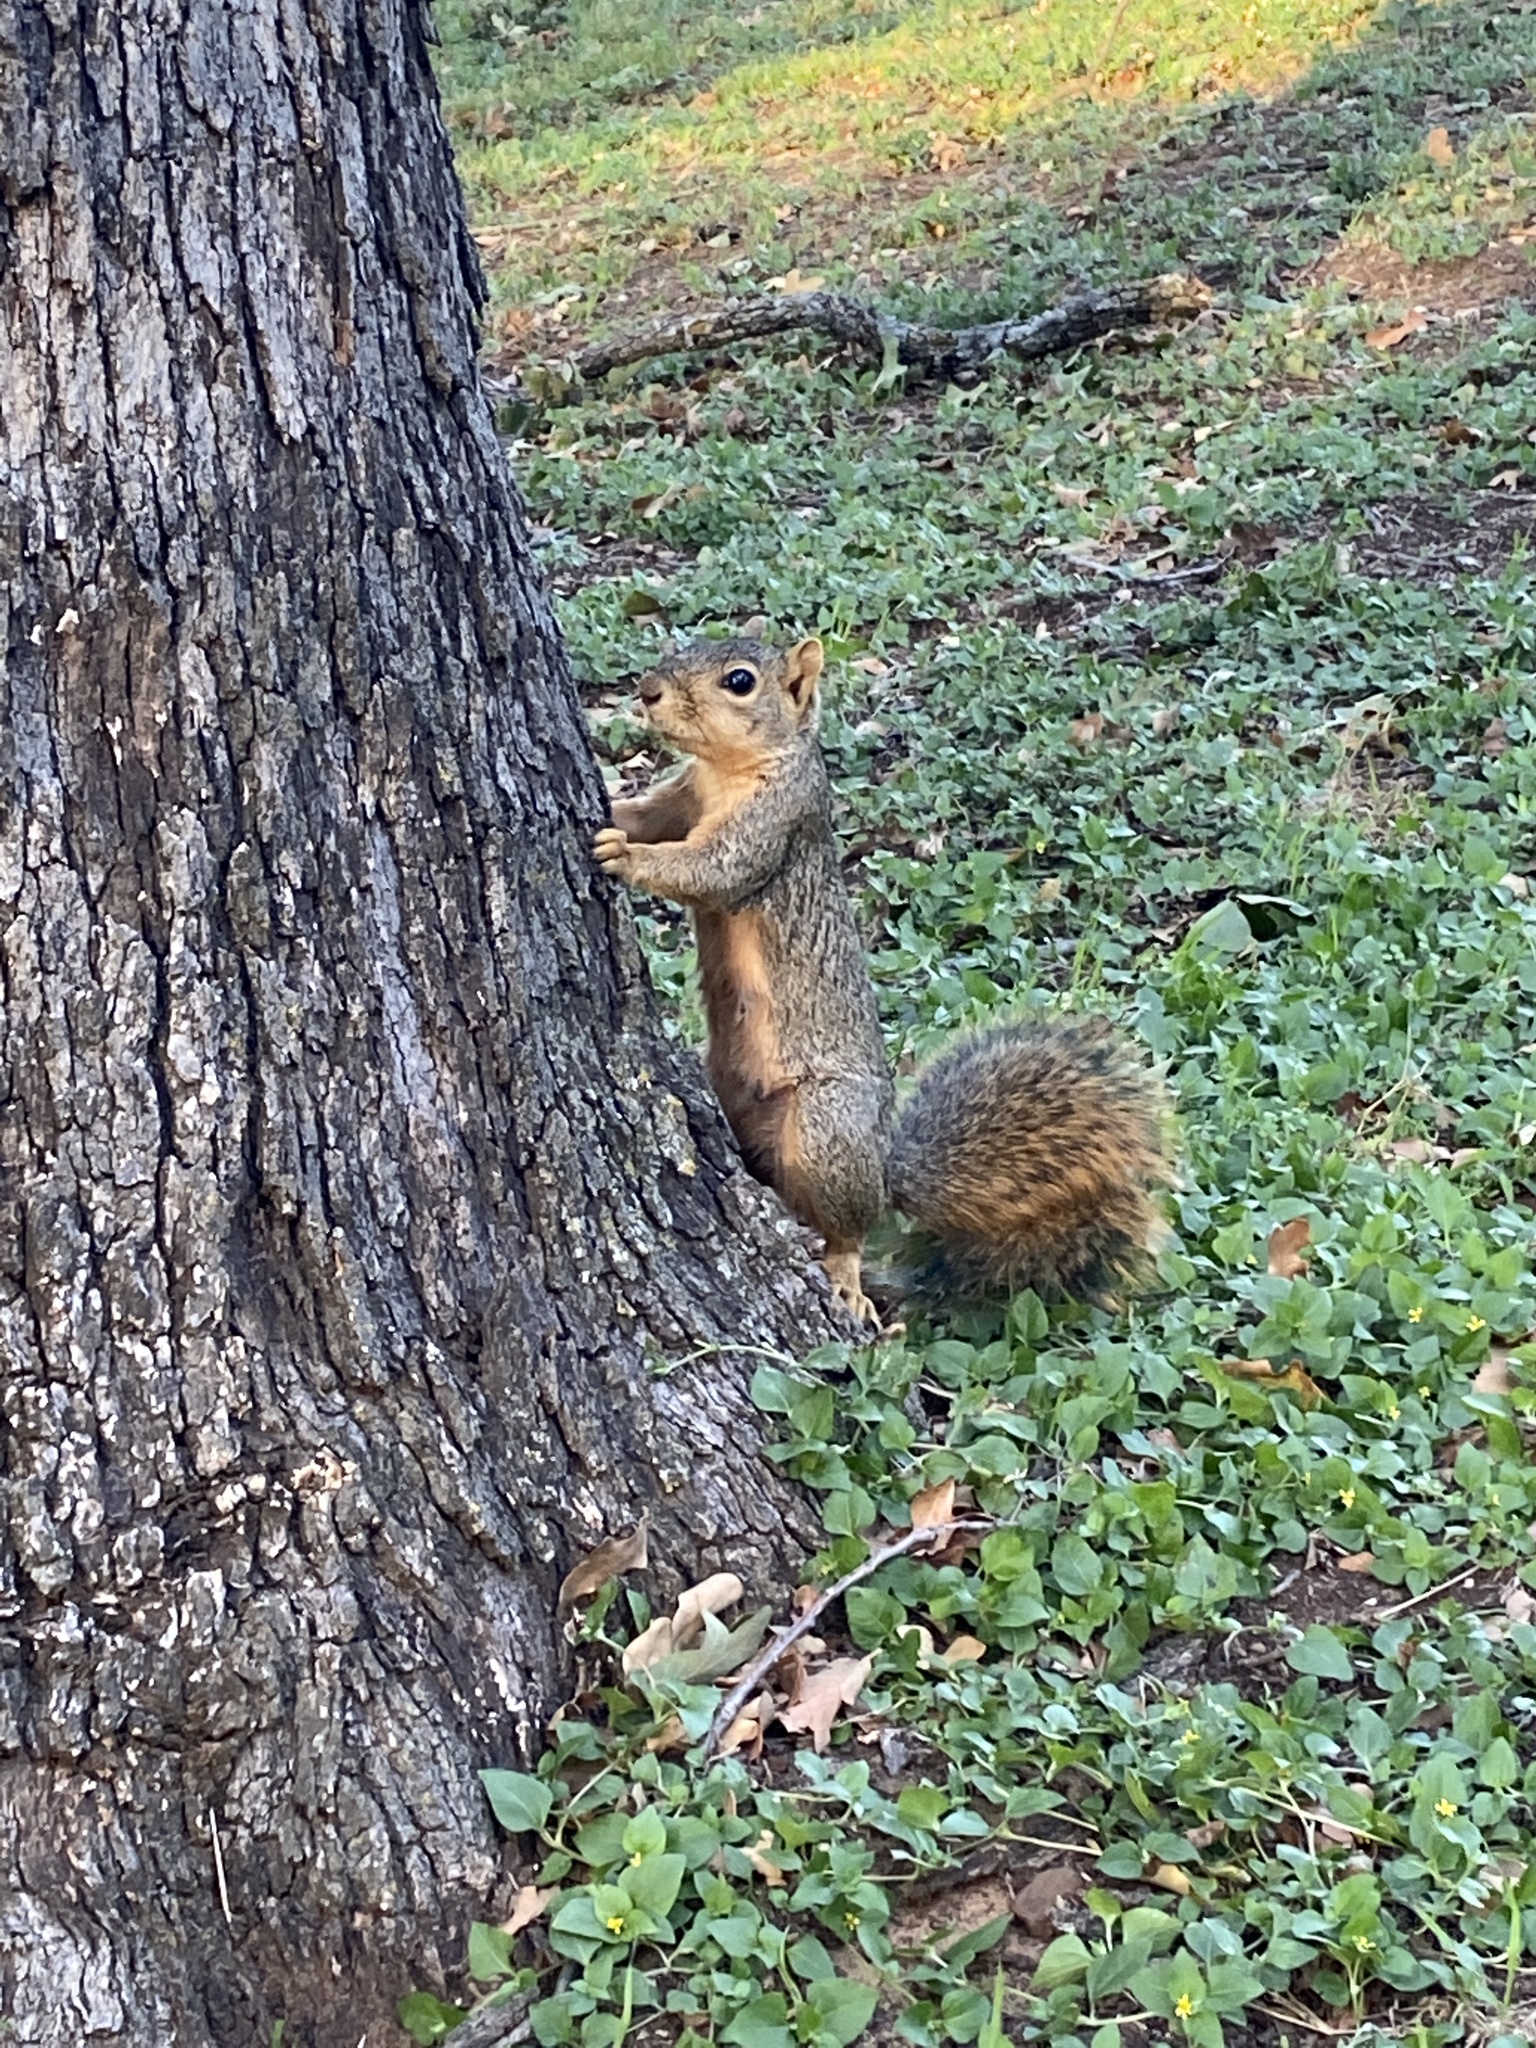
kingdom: Animalia
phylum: Chordata
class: Mammalia
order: Rodentia
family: Sciuridae
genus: Sciurus
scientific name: Sciurus niger
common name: Fox squirrel
